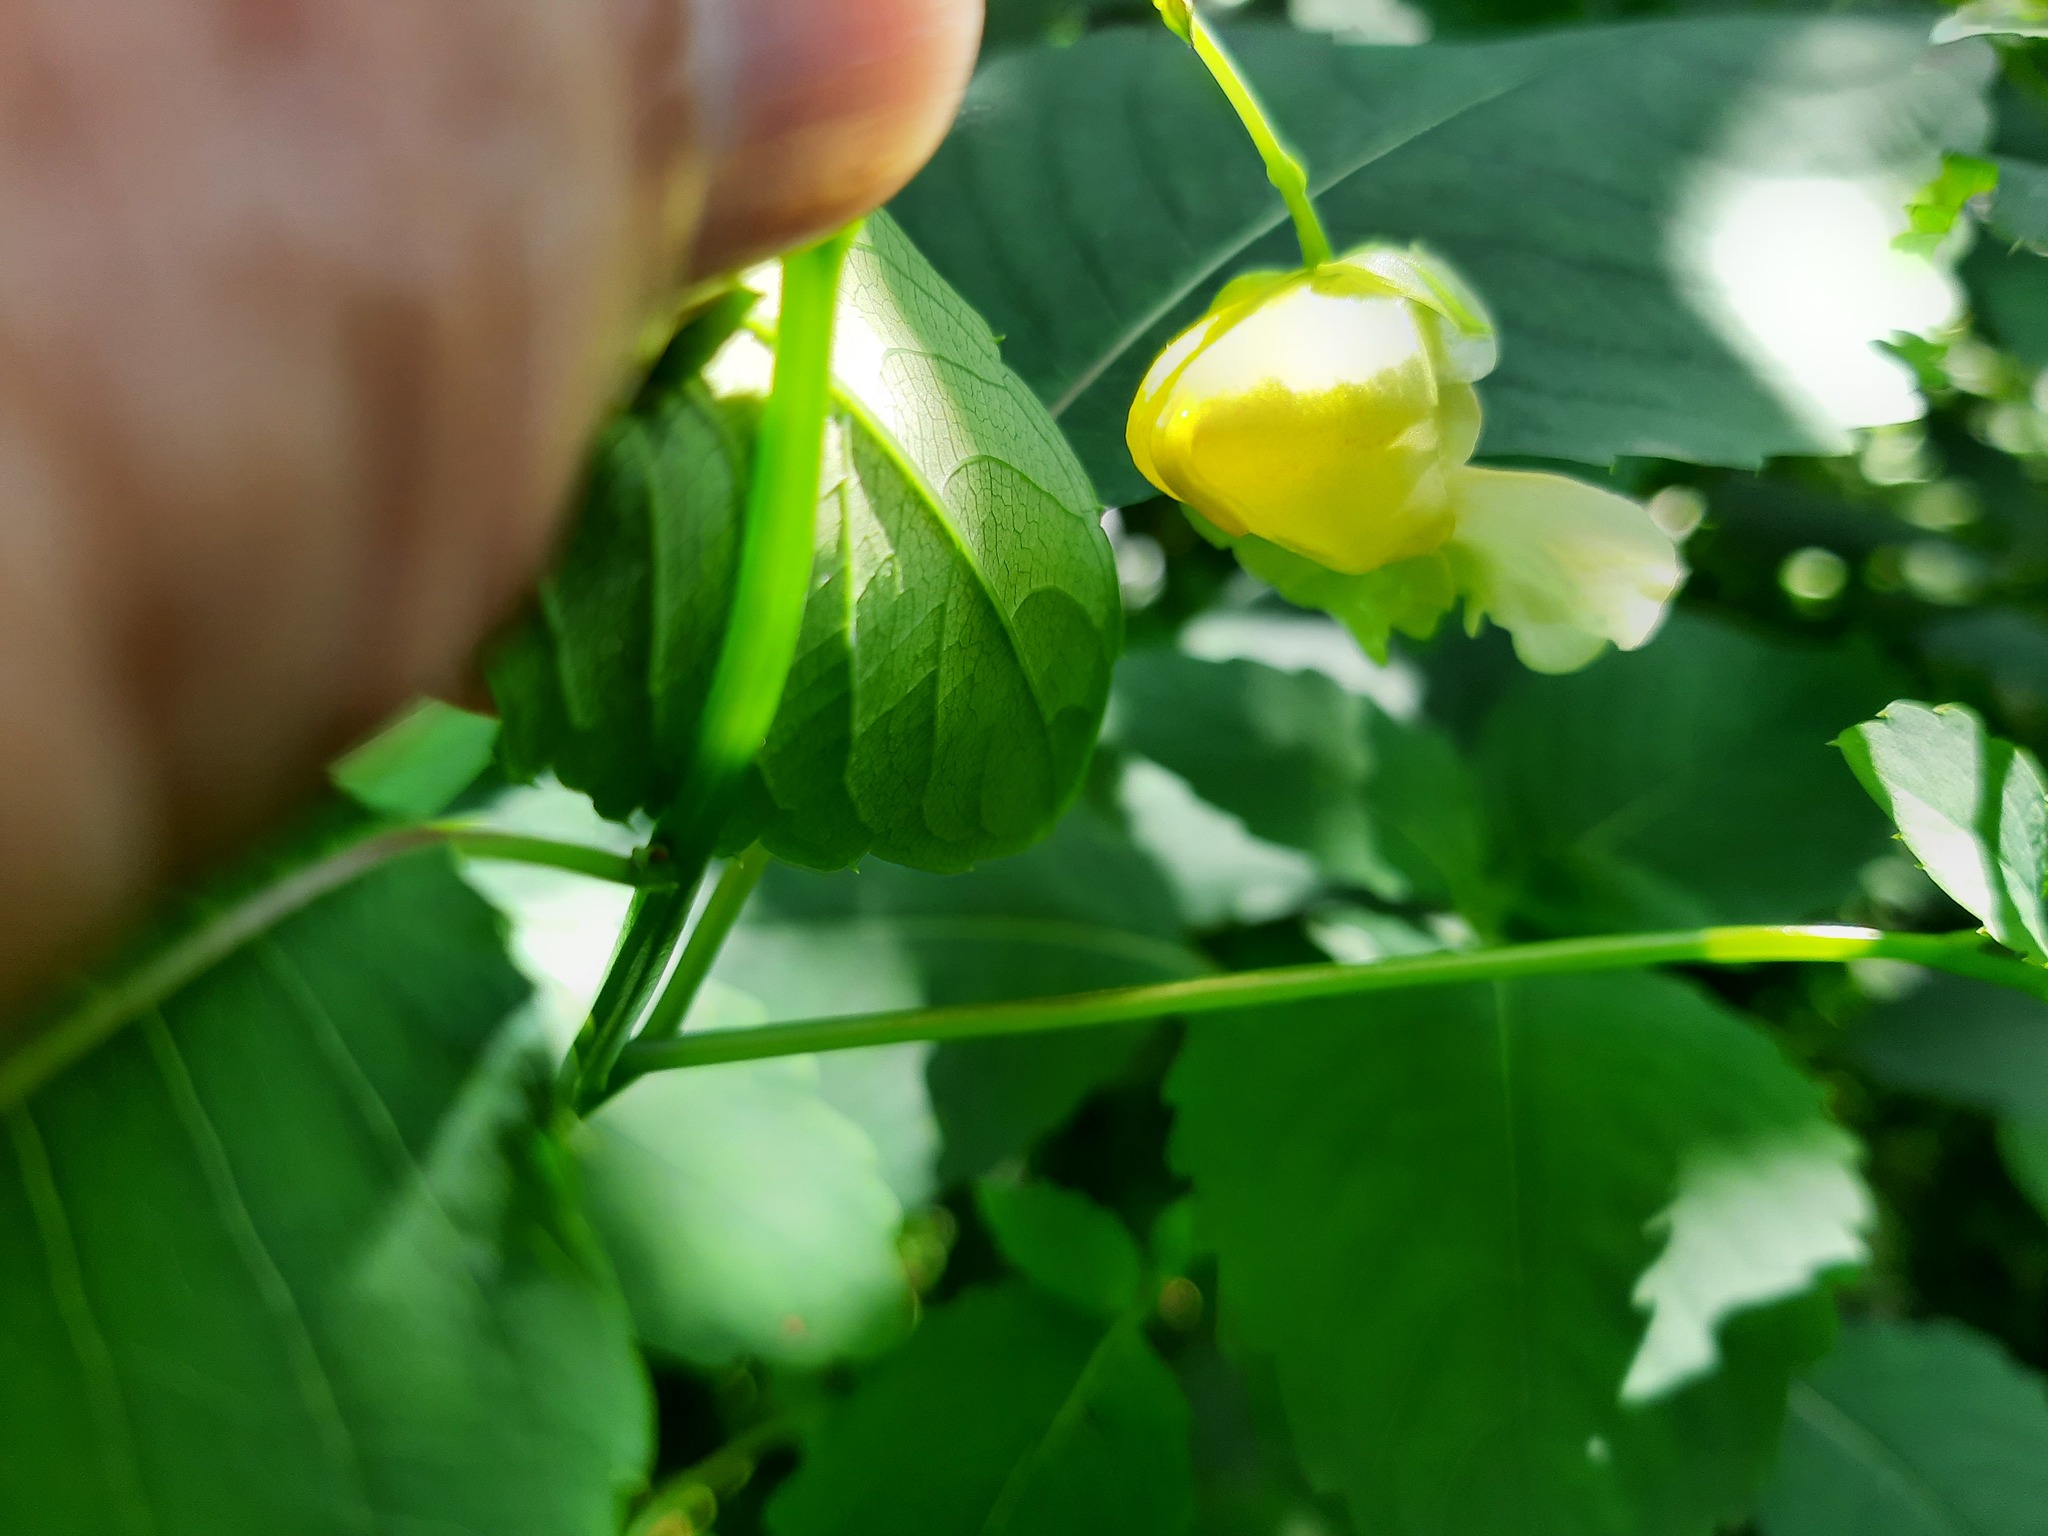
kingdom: Plantae
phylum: Tracheophyta
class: Magnoliopsida
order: Ericales
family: Balsaminaceae
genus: Impatiens
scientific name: Impatiens pallida
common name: Pale snapweed
